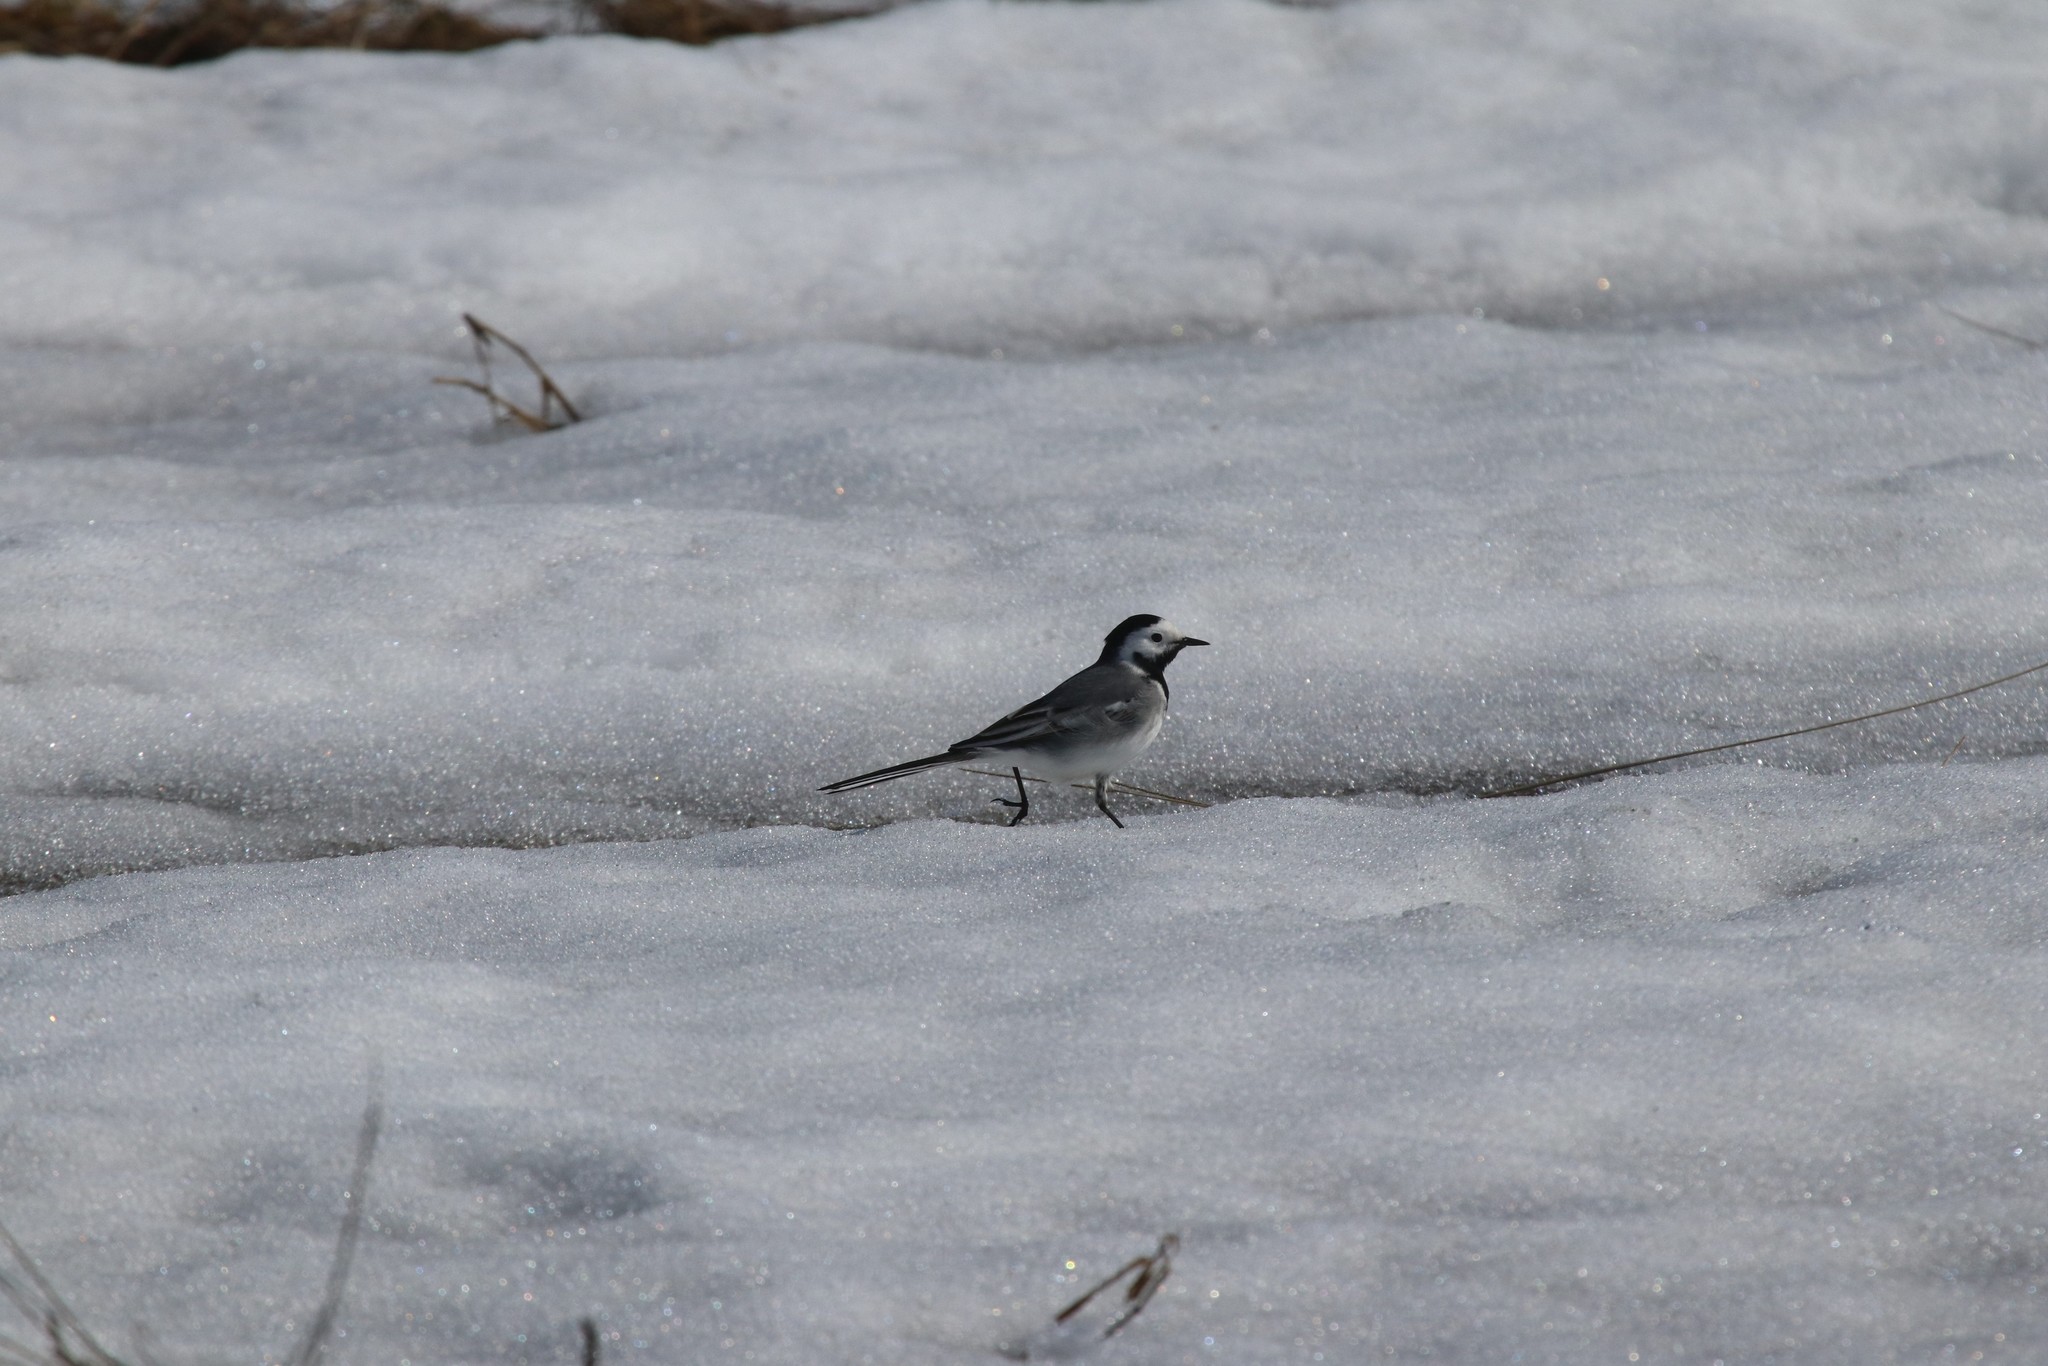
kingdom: Animalia
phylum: Chordata
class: Aves
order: Passeriformes
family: Motacillidae
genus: Motacilla
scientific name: Motacilla alba
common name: White wagtail
